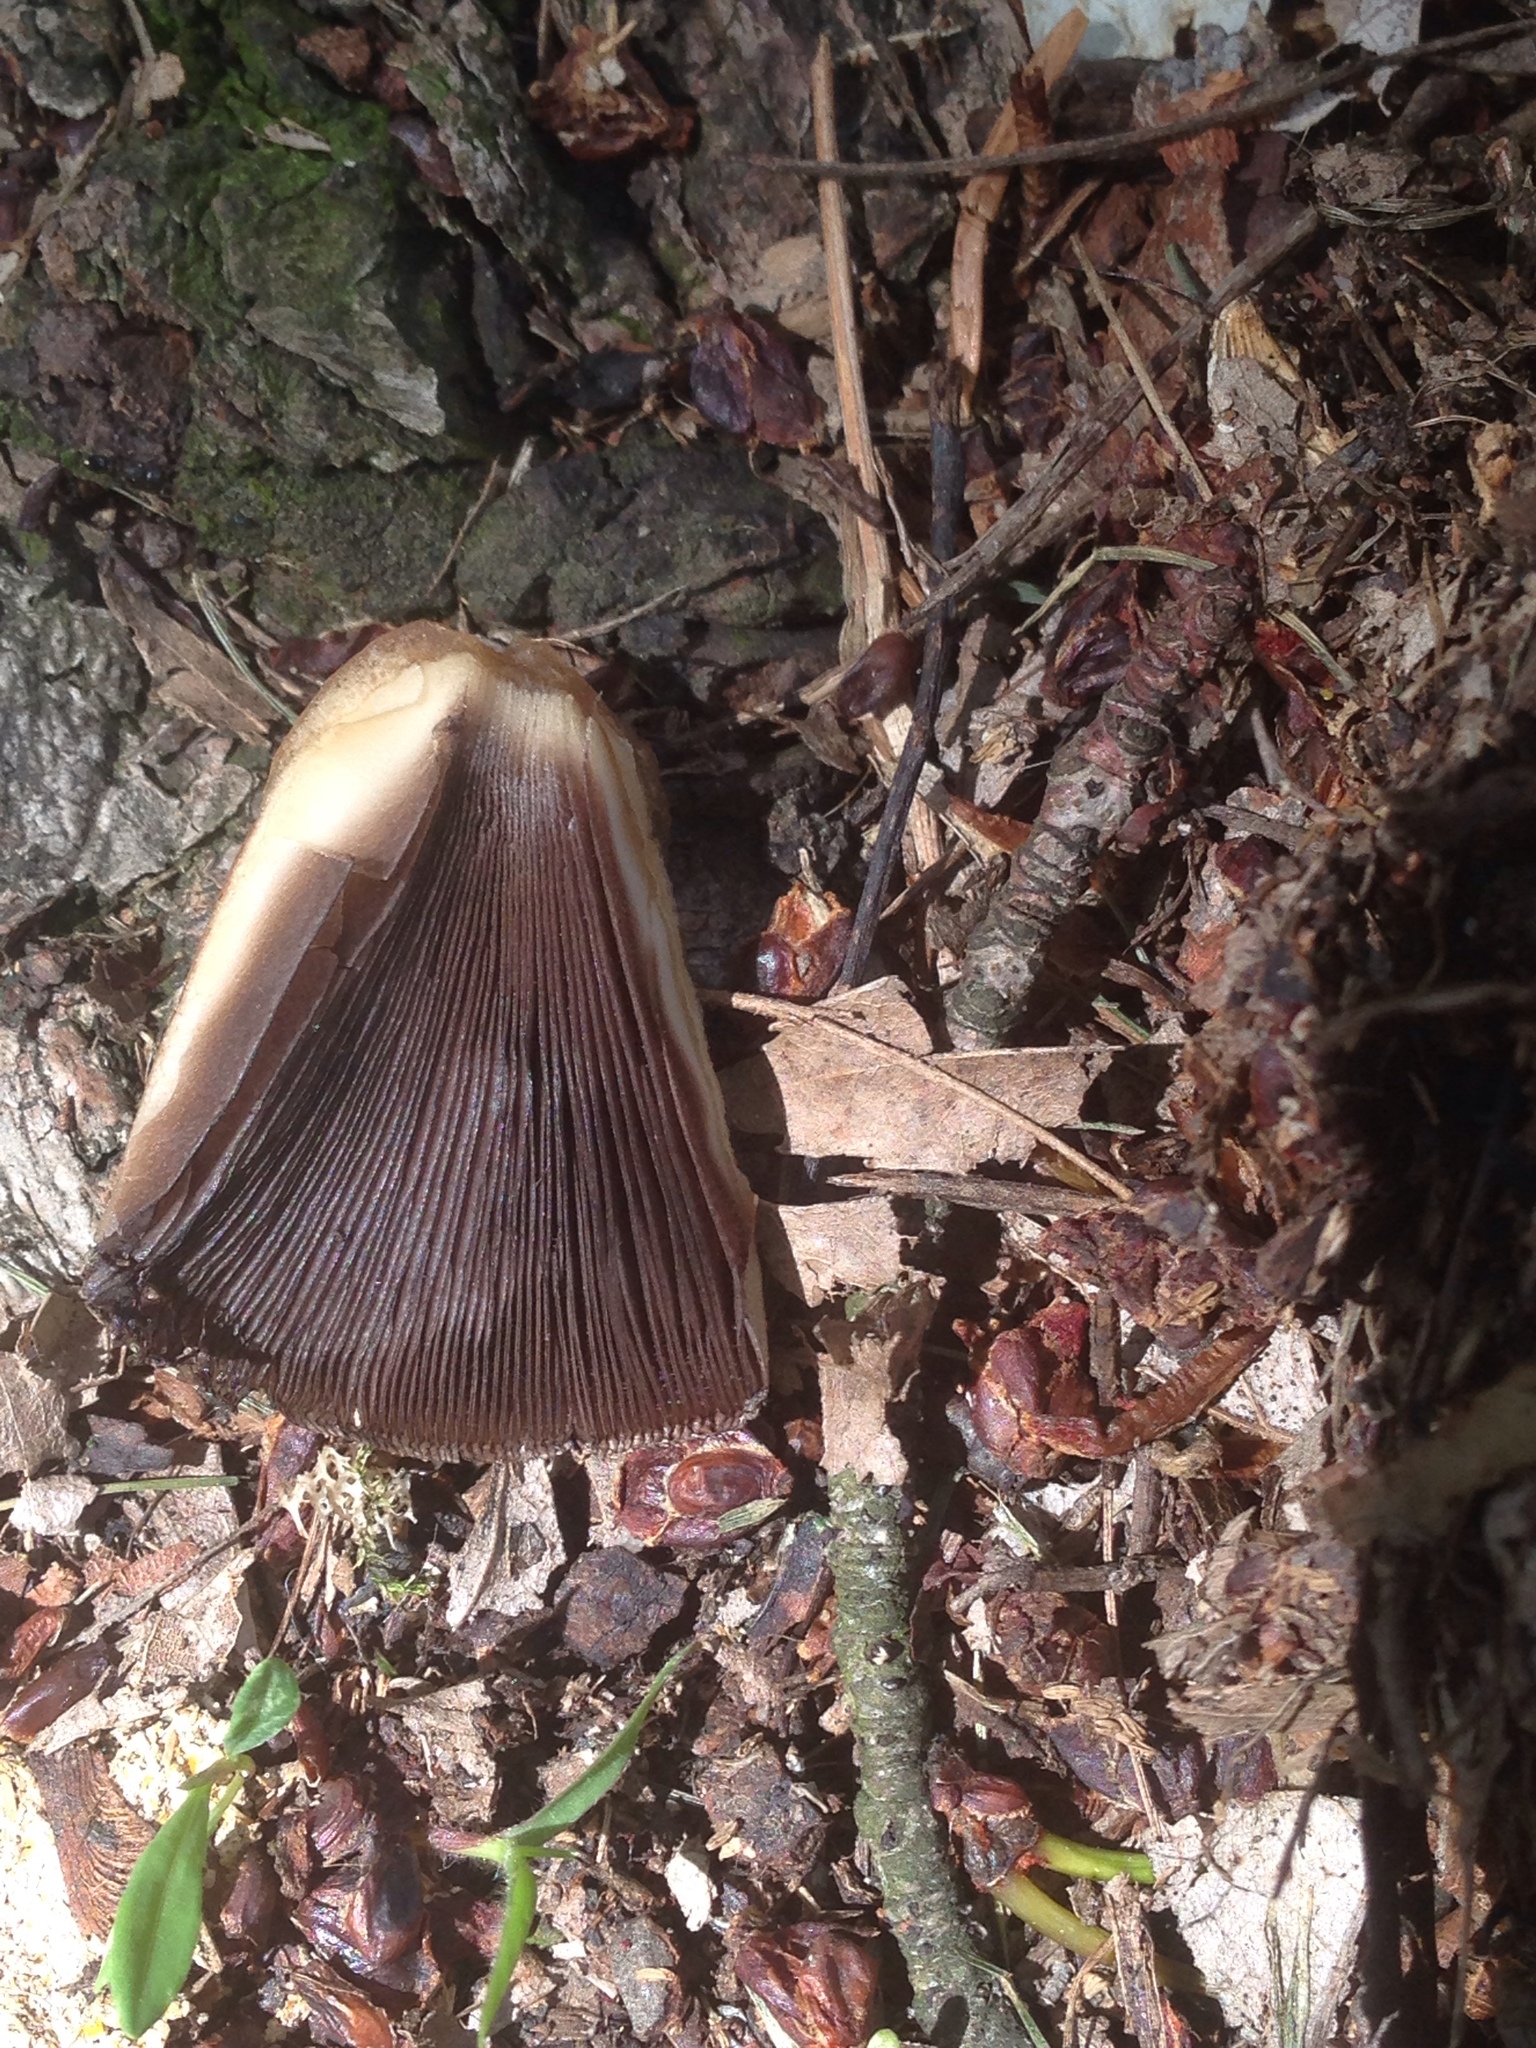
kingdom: Fungi
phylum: Basidiomycota
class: Agaricomycetes
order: Agaricales
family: Psathyrellaceae
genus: Coprinellus
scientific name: Coprinellus micaceus
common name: Glistening ink-cap
